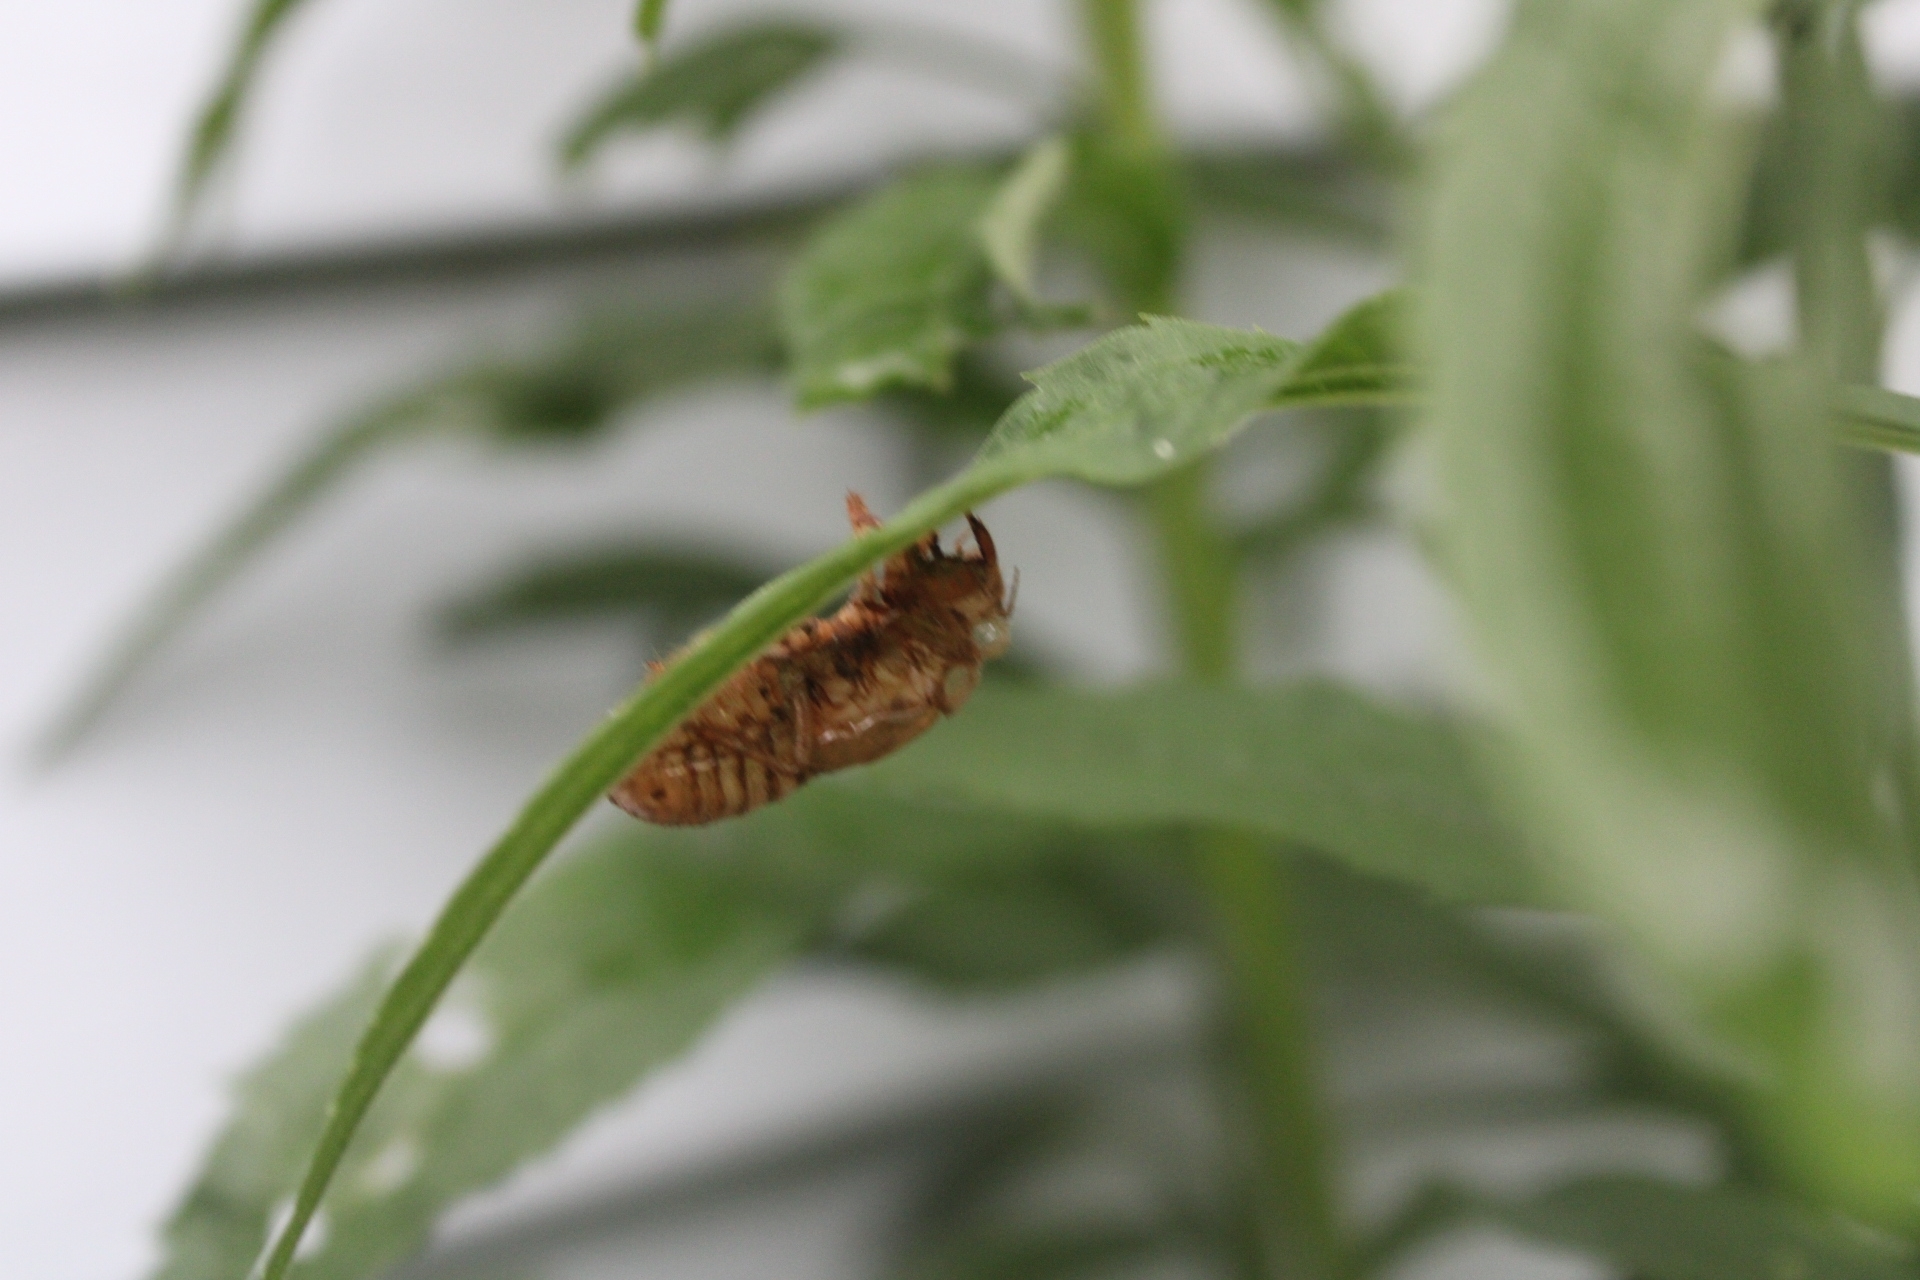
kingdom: Animalia
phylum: Arthropoda
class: Insecta
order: Hemiptera
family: Cicadidae
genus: Magicicada
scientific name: Magicicada
